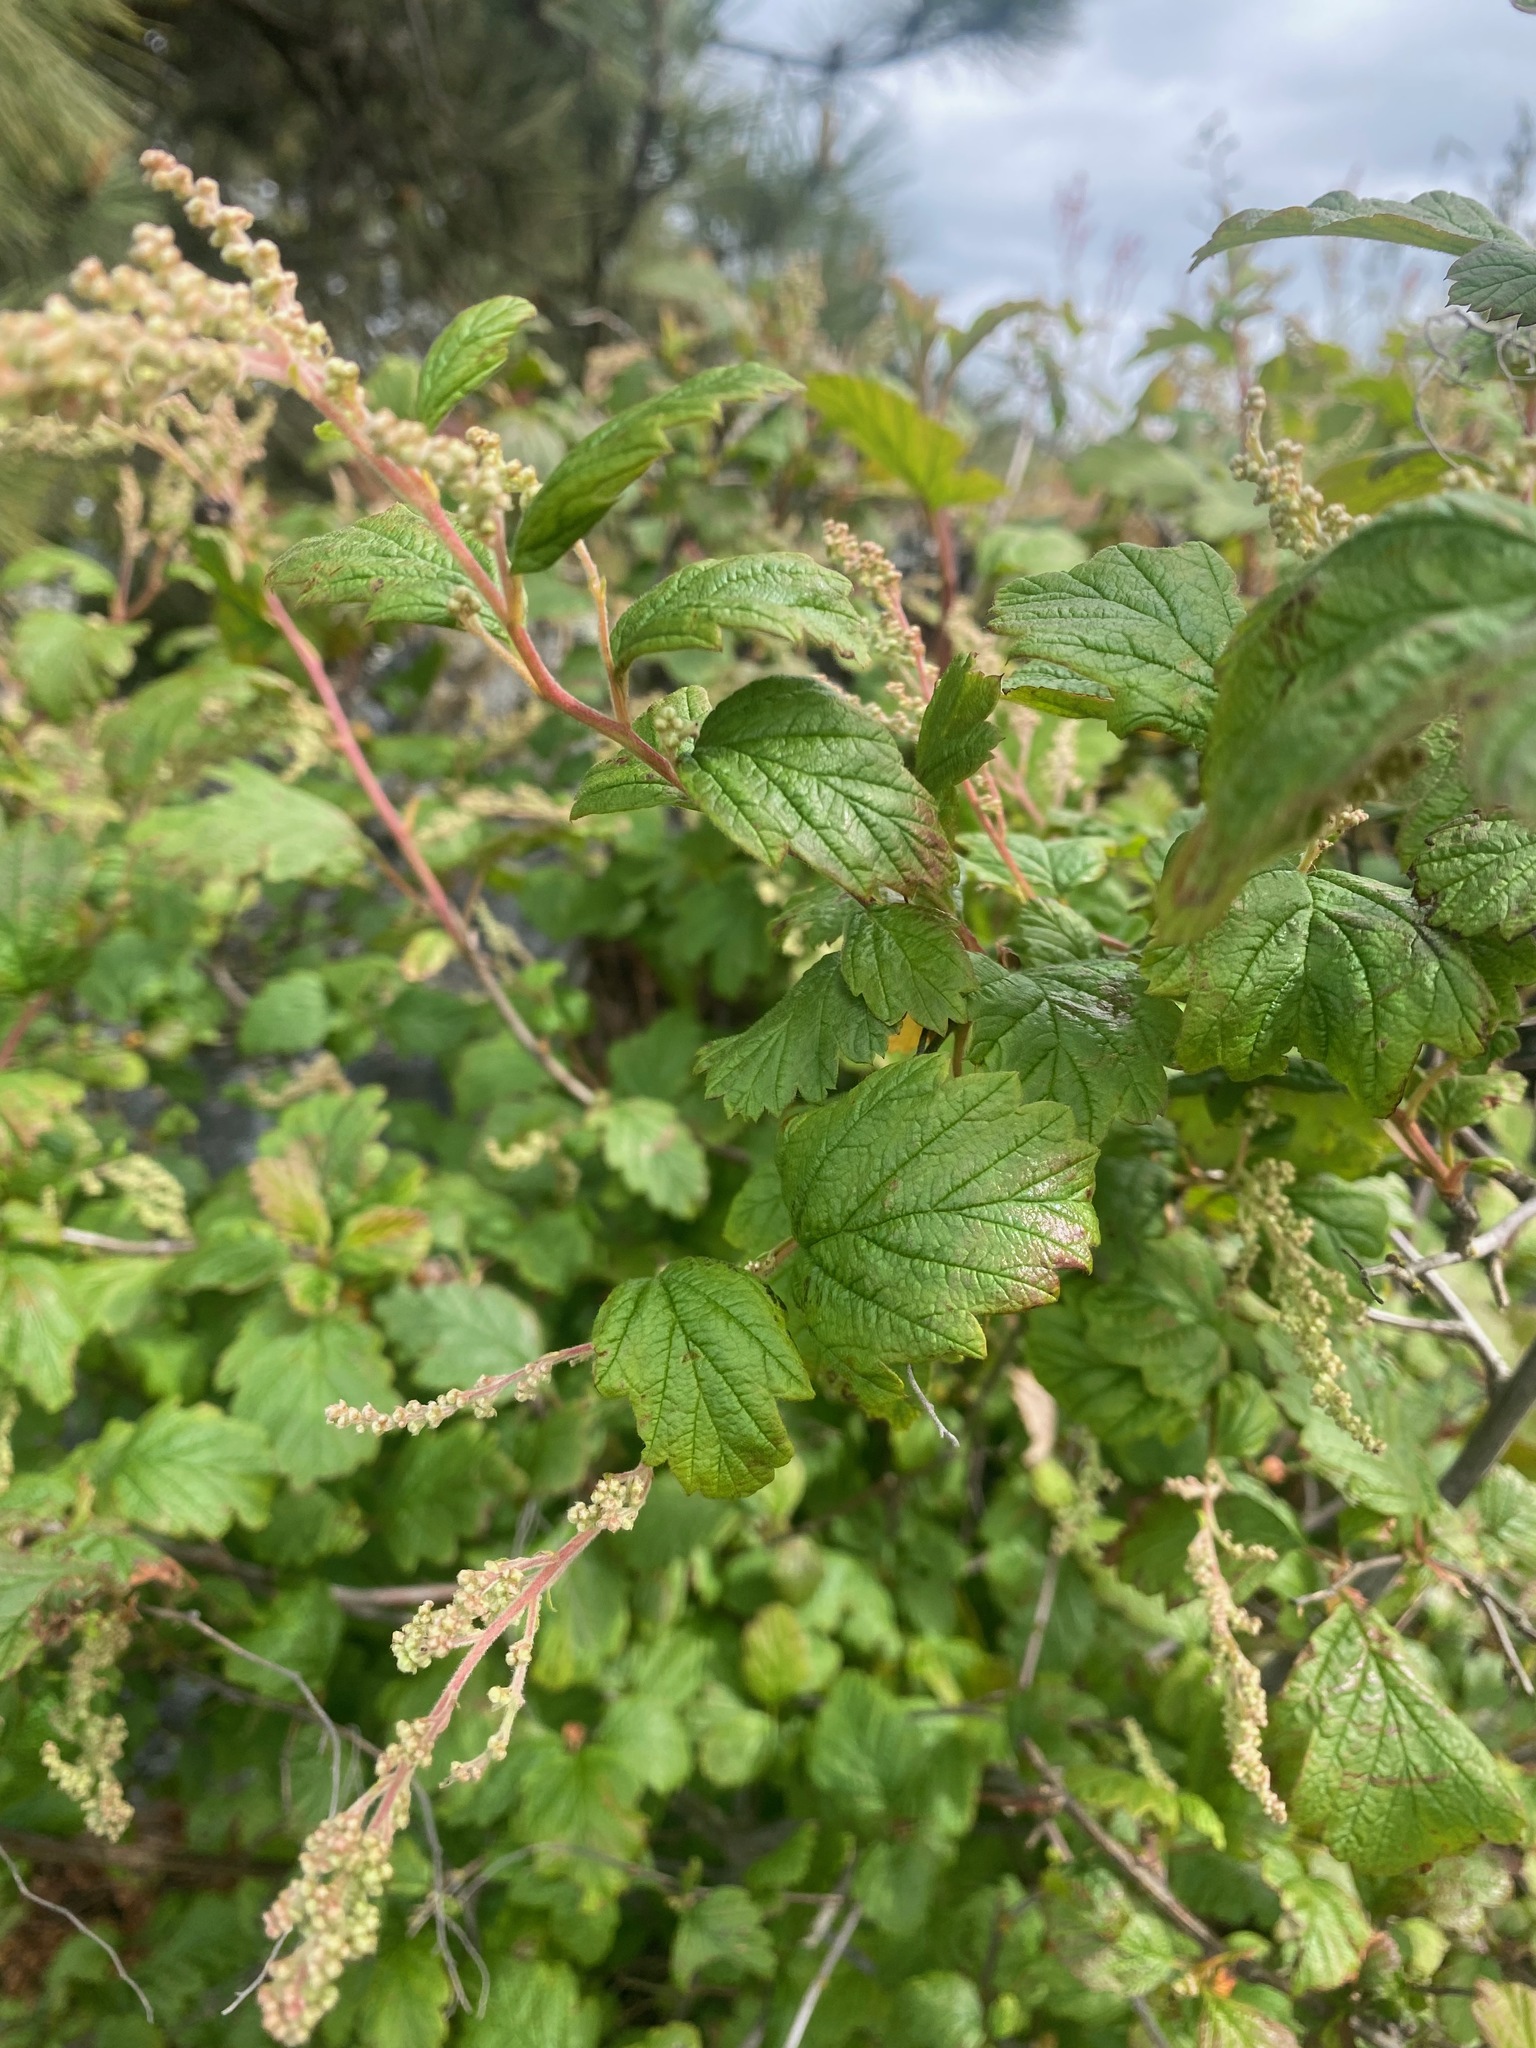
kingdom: Plantae
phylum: Tracheophyta
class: Magnoliopsida
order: Rosales
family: Rosaceae
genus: Holodiscus
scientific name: Holodiscus discolor
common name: Oceanspray
